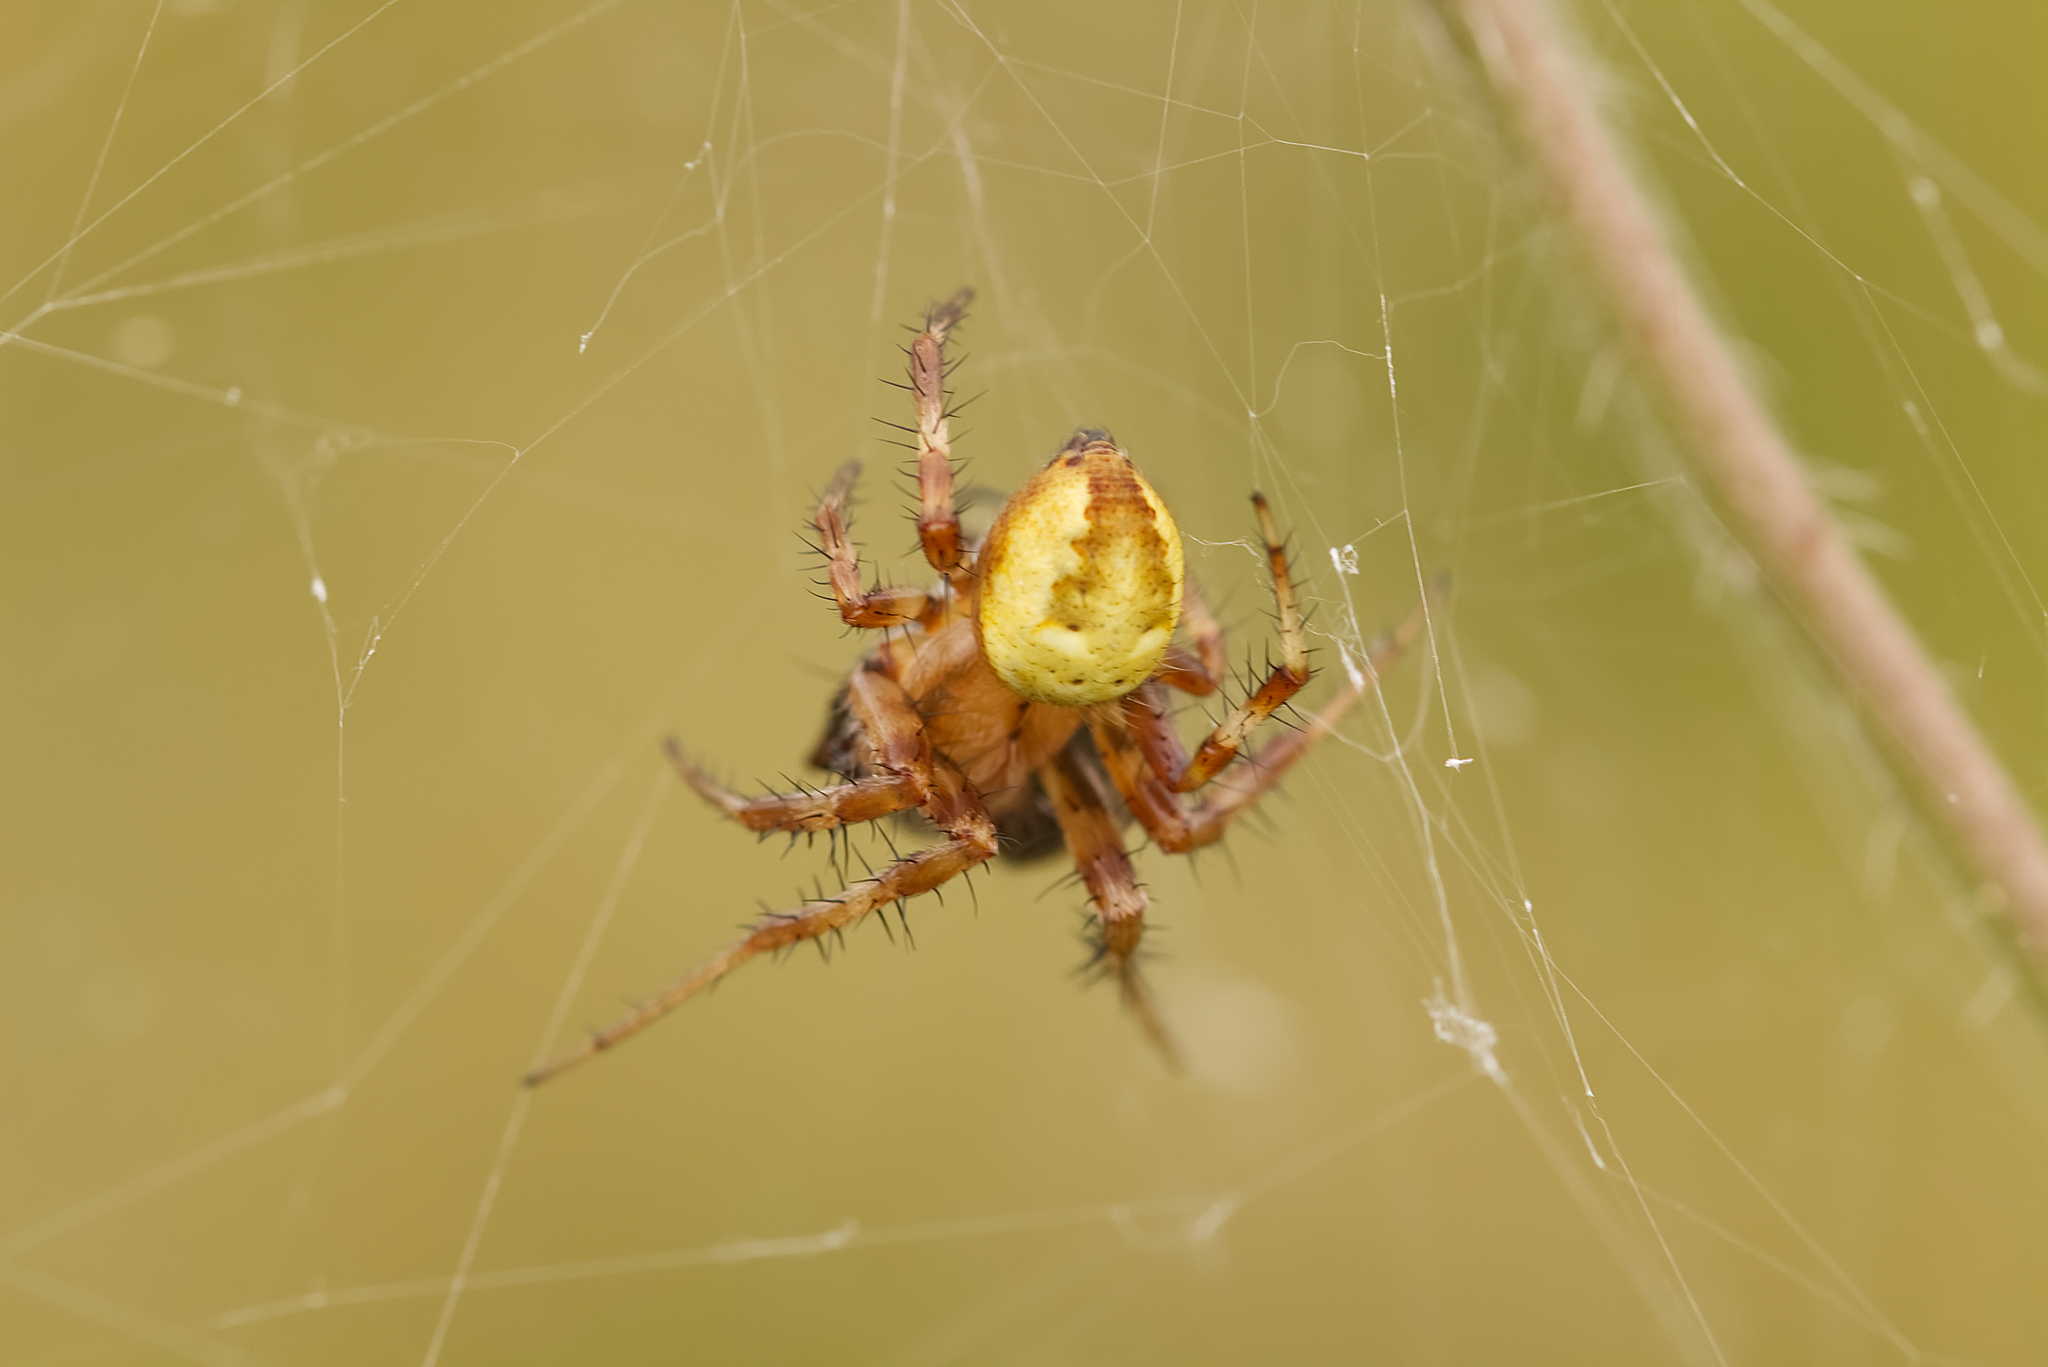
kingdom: Animalia
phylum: Arthropoda
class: Arachnida
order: Araneae
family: Araneidae
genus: Araneus
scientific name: Araneus quadratus
